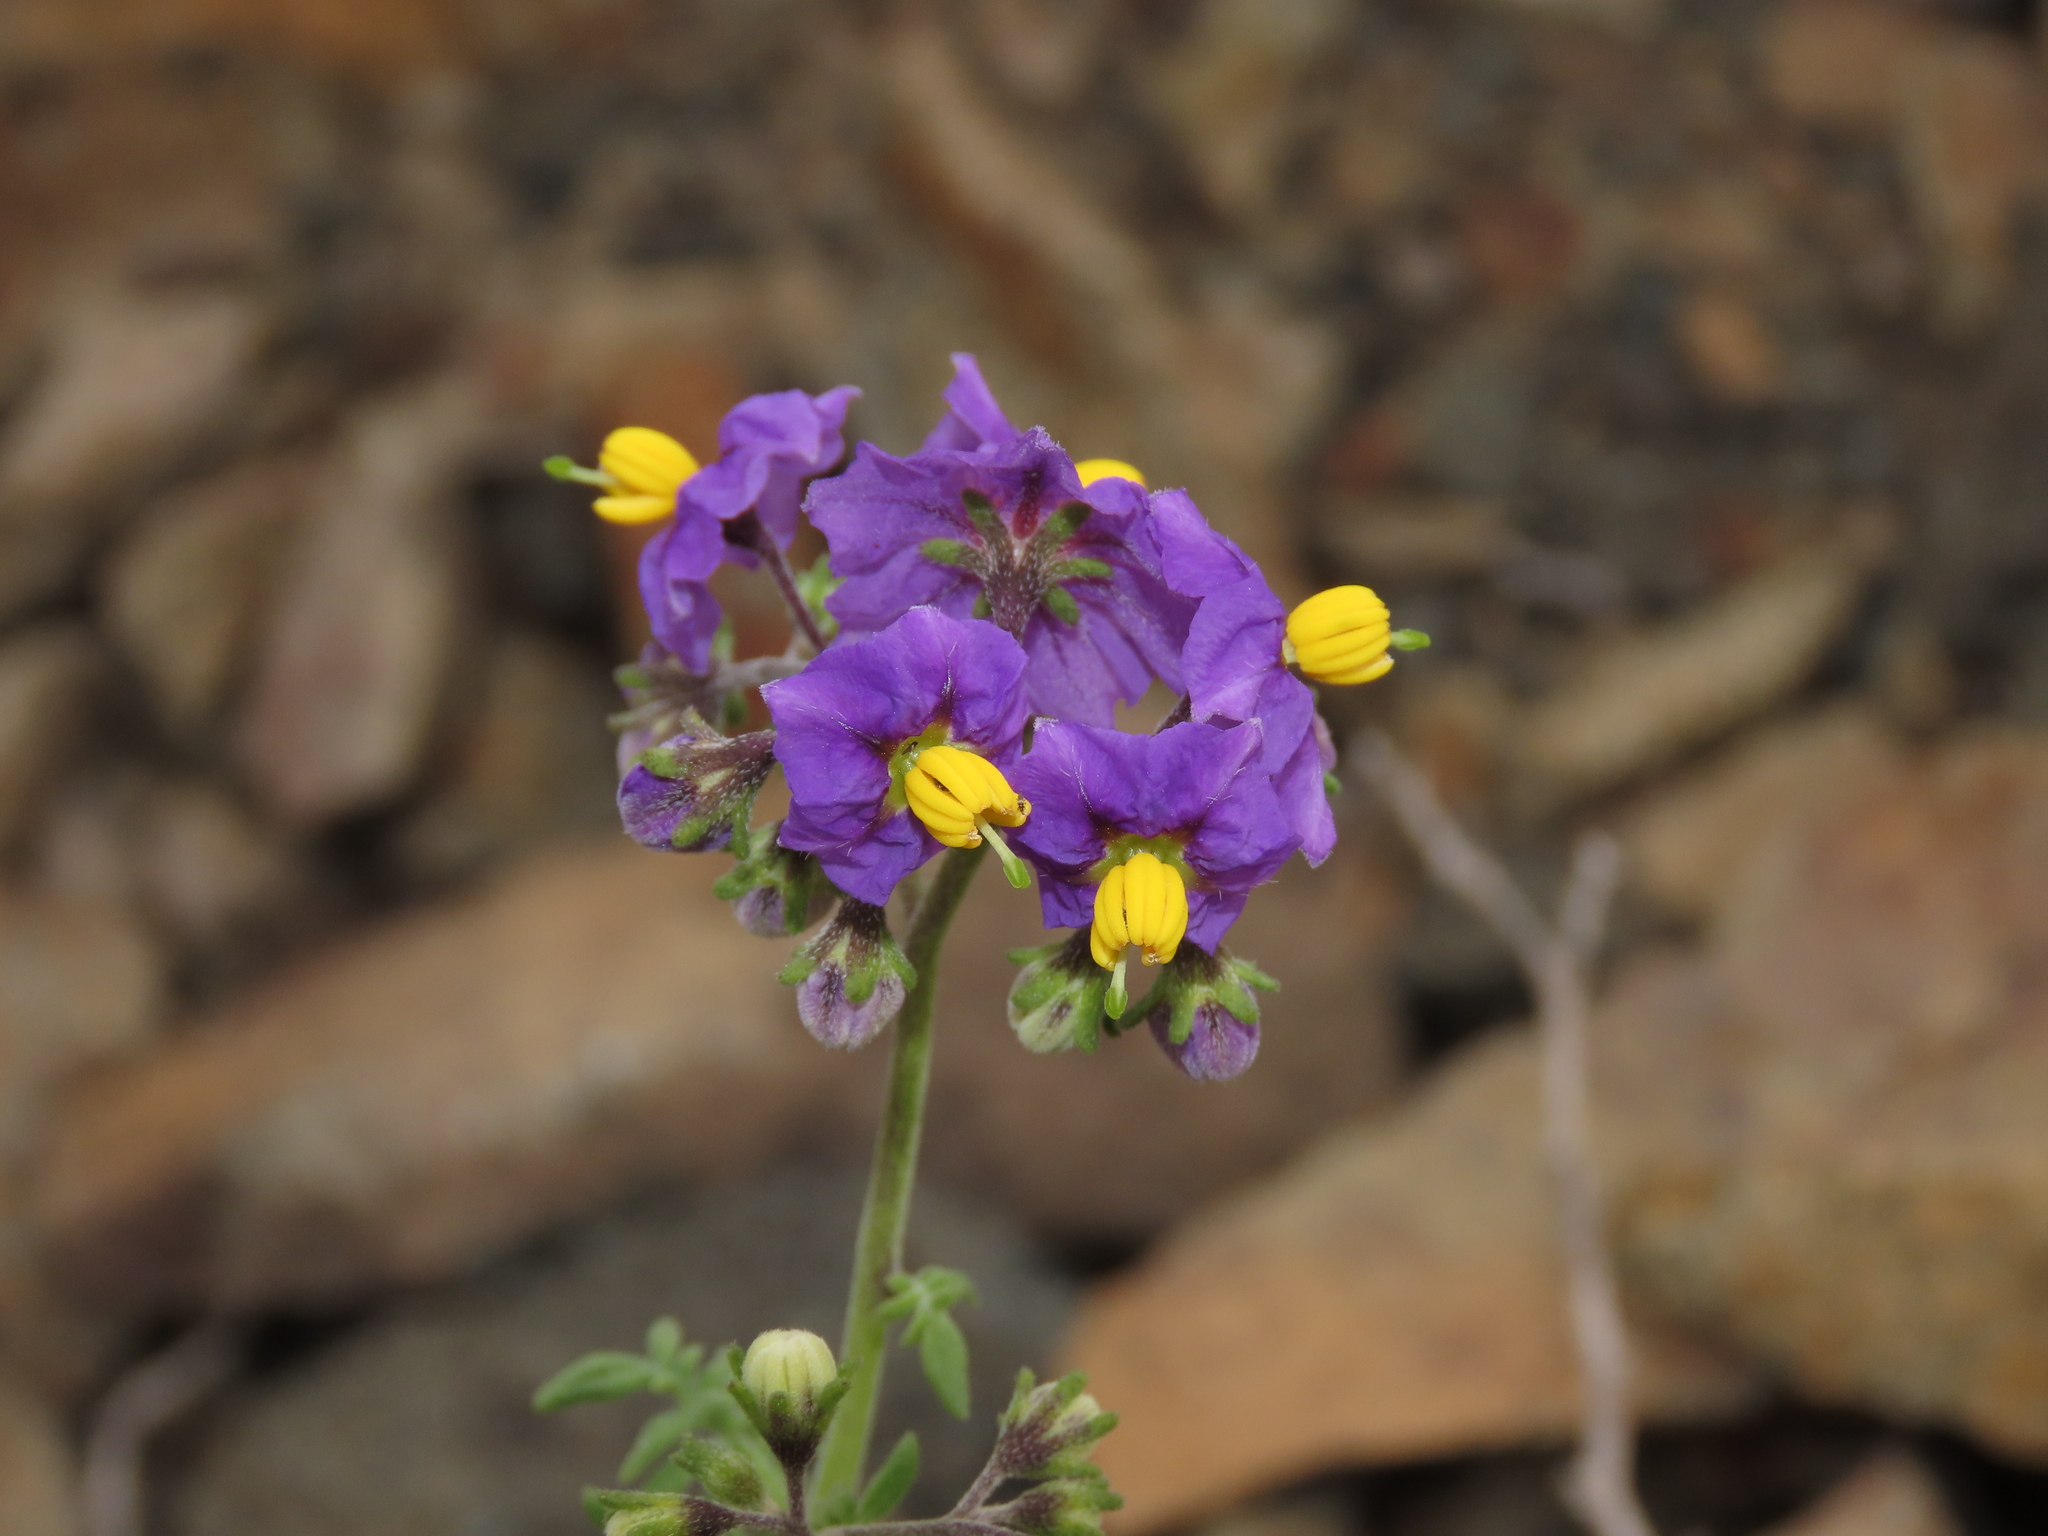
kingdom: Plantae
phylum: Tracheophyta
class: Magnoliopsida
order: Solanales
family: Solanaceae
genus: Solanum
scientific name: Solanum remyanum
